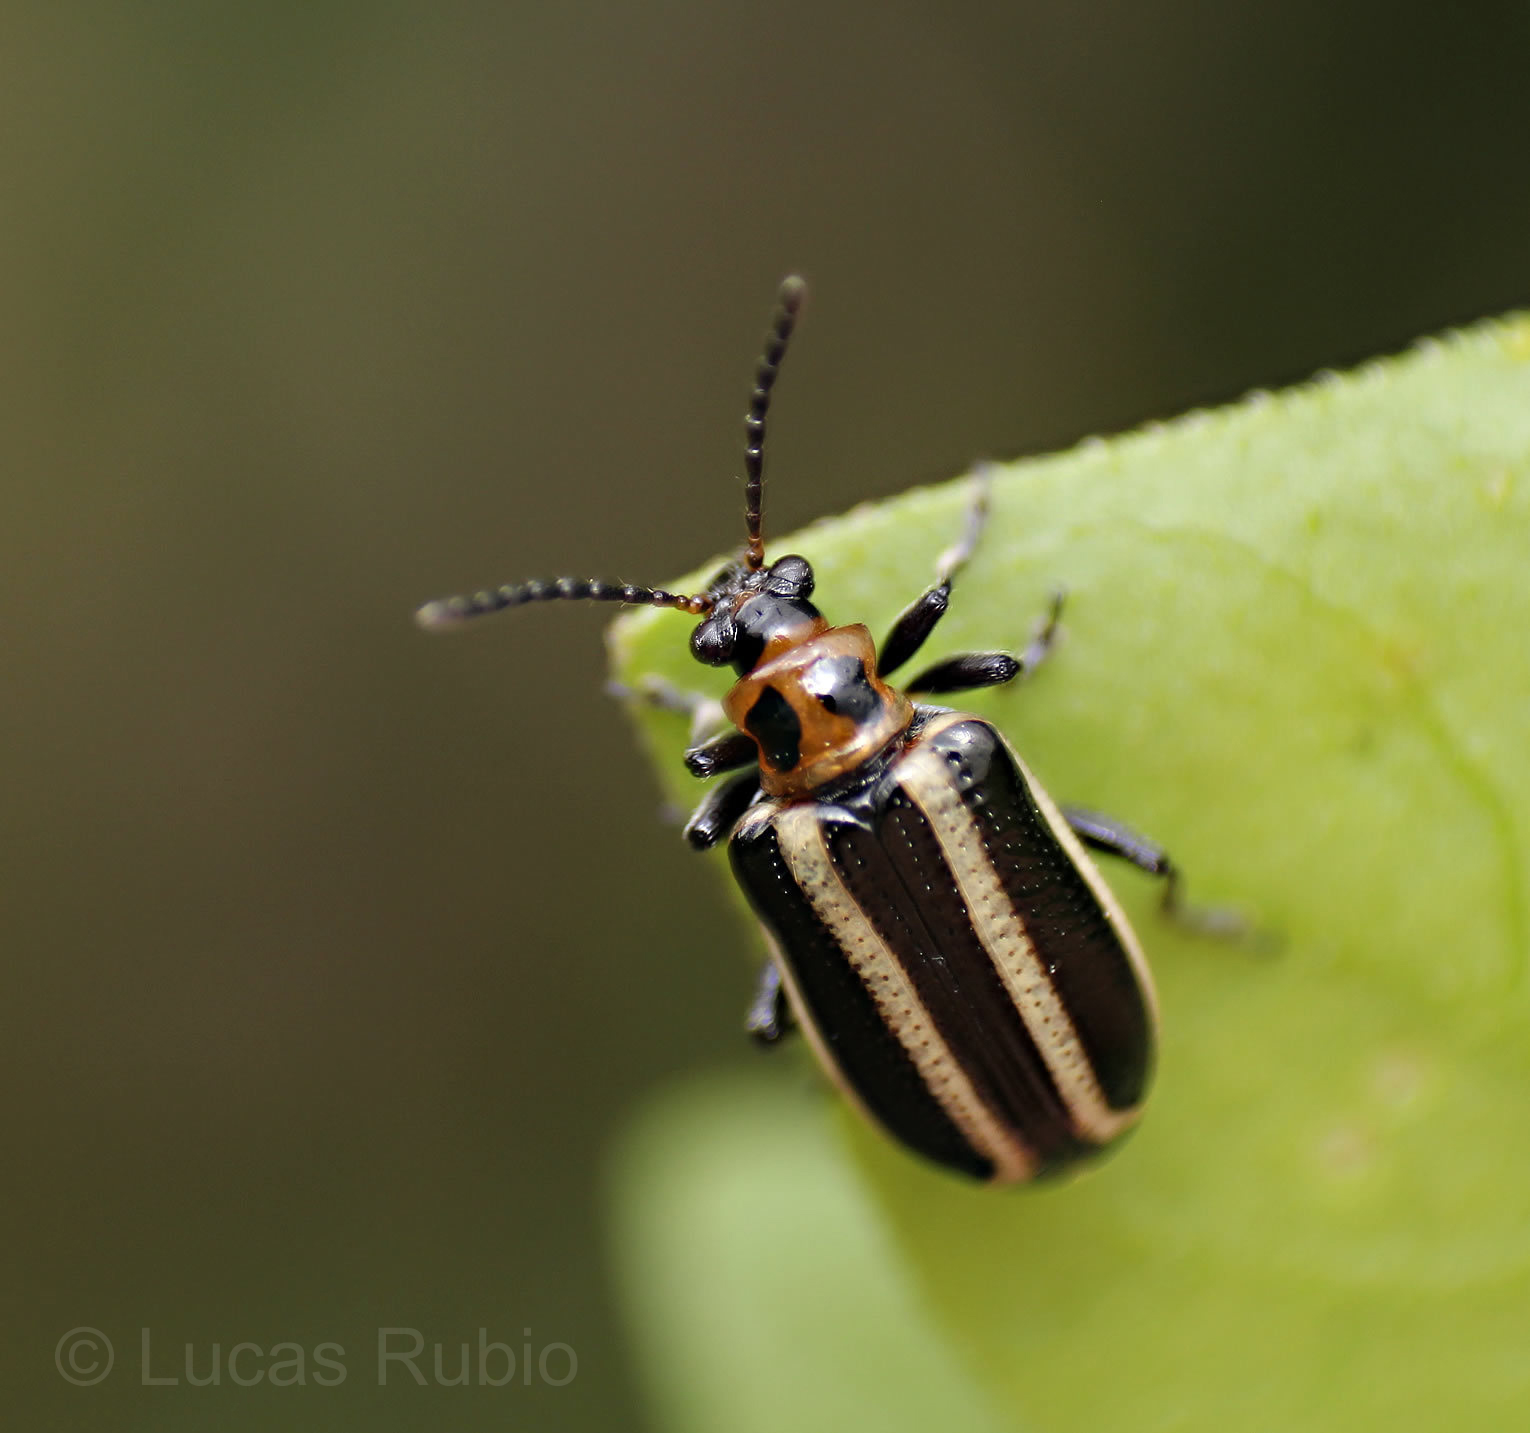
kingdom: Animalia
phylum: Arthropoda
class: Insecta
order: Coleoptera
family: Chrysomelidae
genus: Lema
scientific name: Lema bilineata
